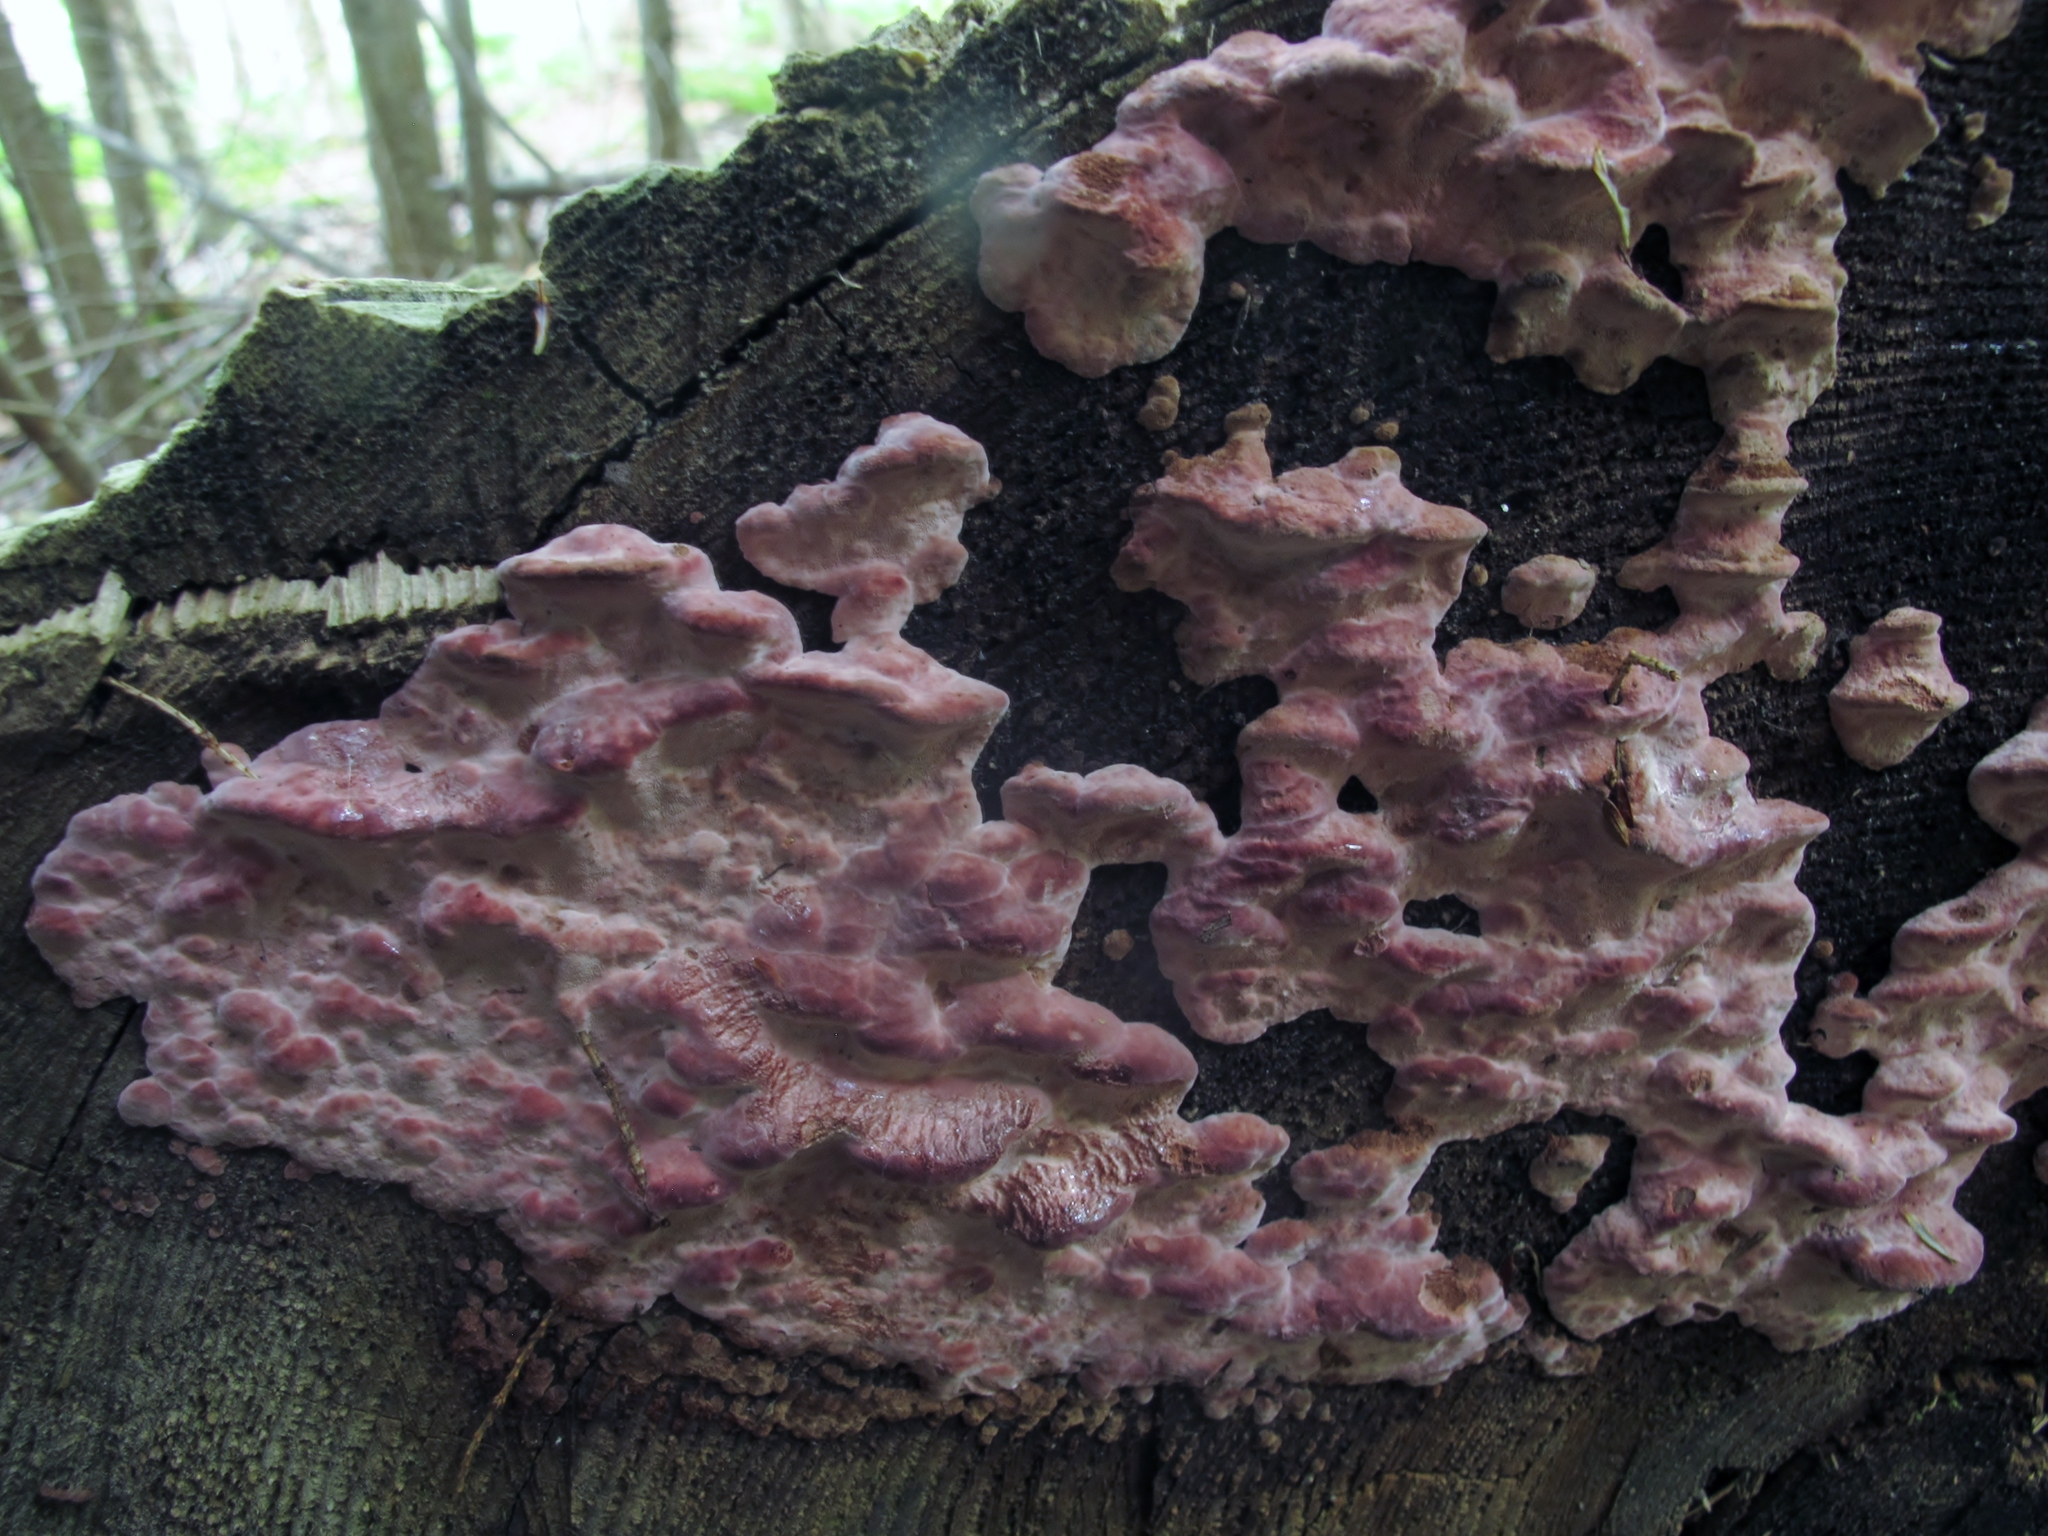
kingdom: Fungi
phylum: Basidiomycota
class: Agaricomycetes
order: Polyporales
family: Fomitopsidaceae
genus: Rhodofomes
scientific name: Rhodofomes cajanderi
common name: Rosy conk
